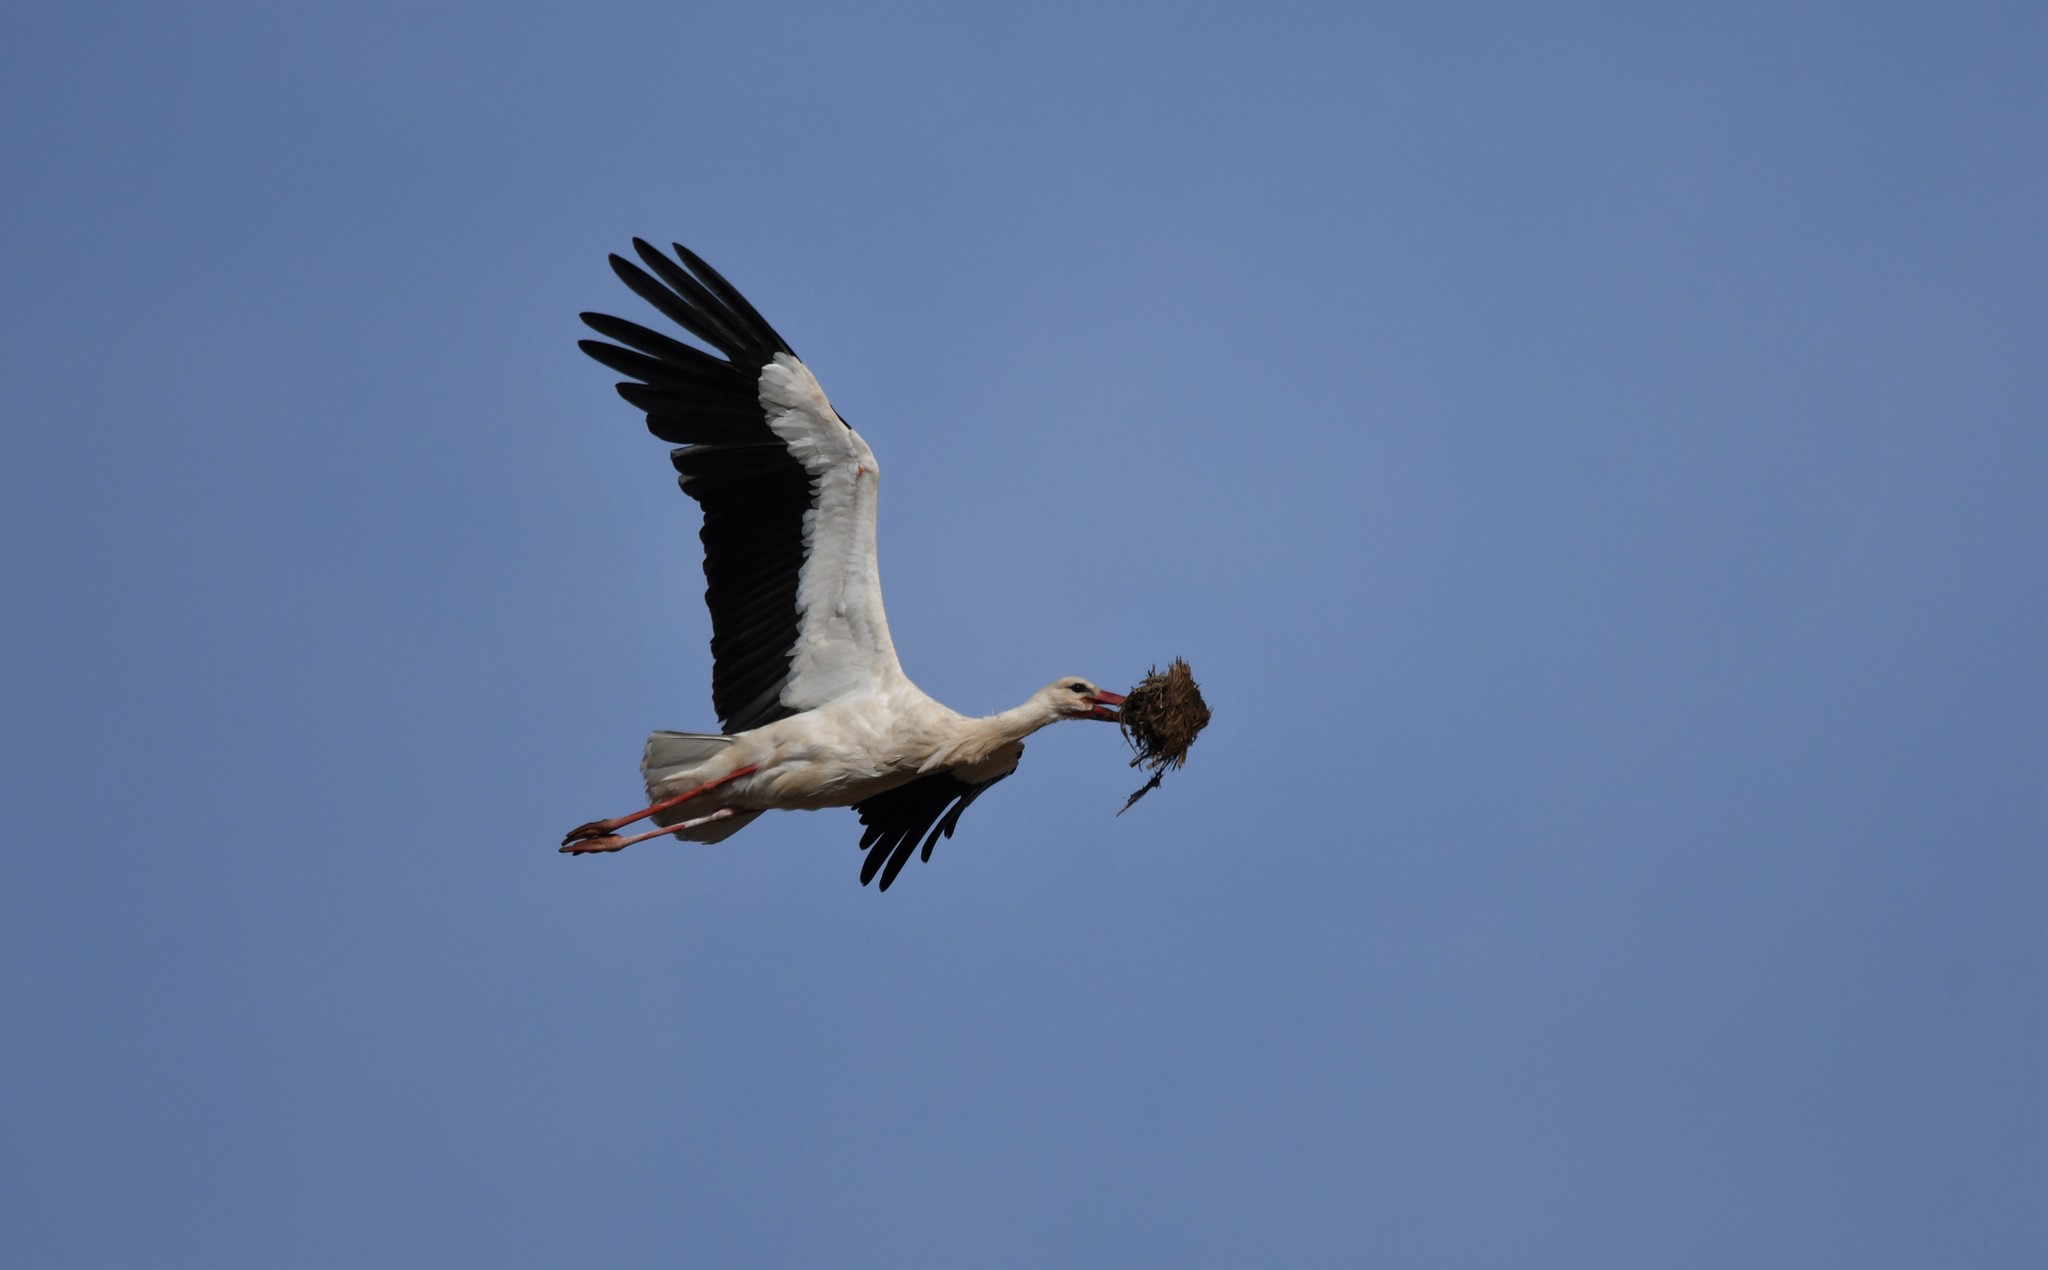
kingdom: Animalia
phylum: Chordata
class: Aves
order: Ciconiiformes
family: Ciconiidae
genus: Ciconia
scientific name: Ciconia ciconia
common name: White stork
